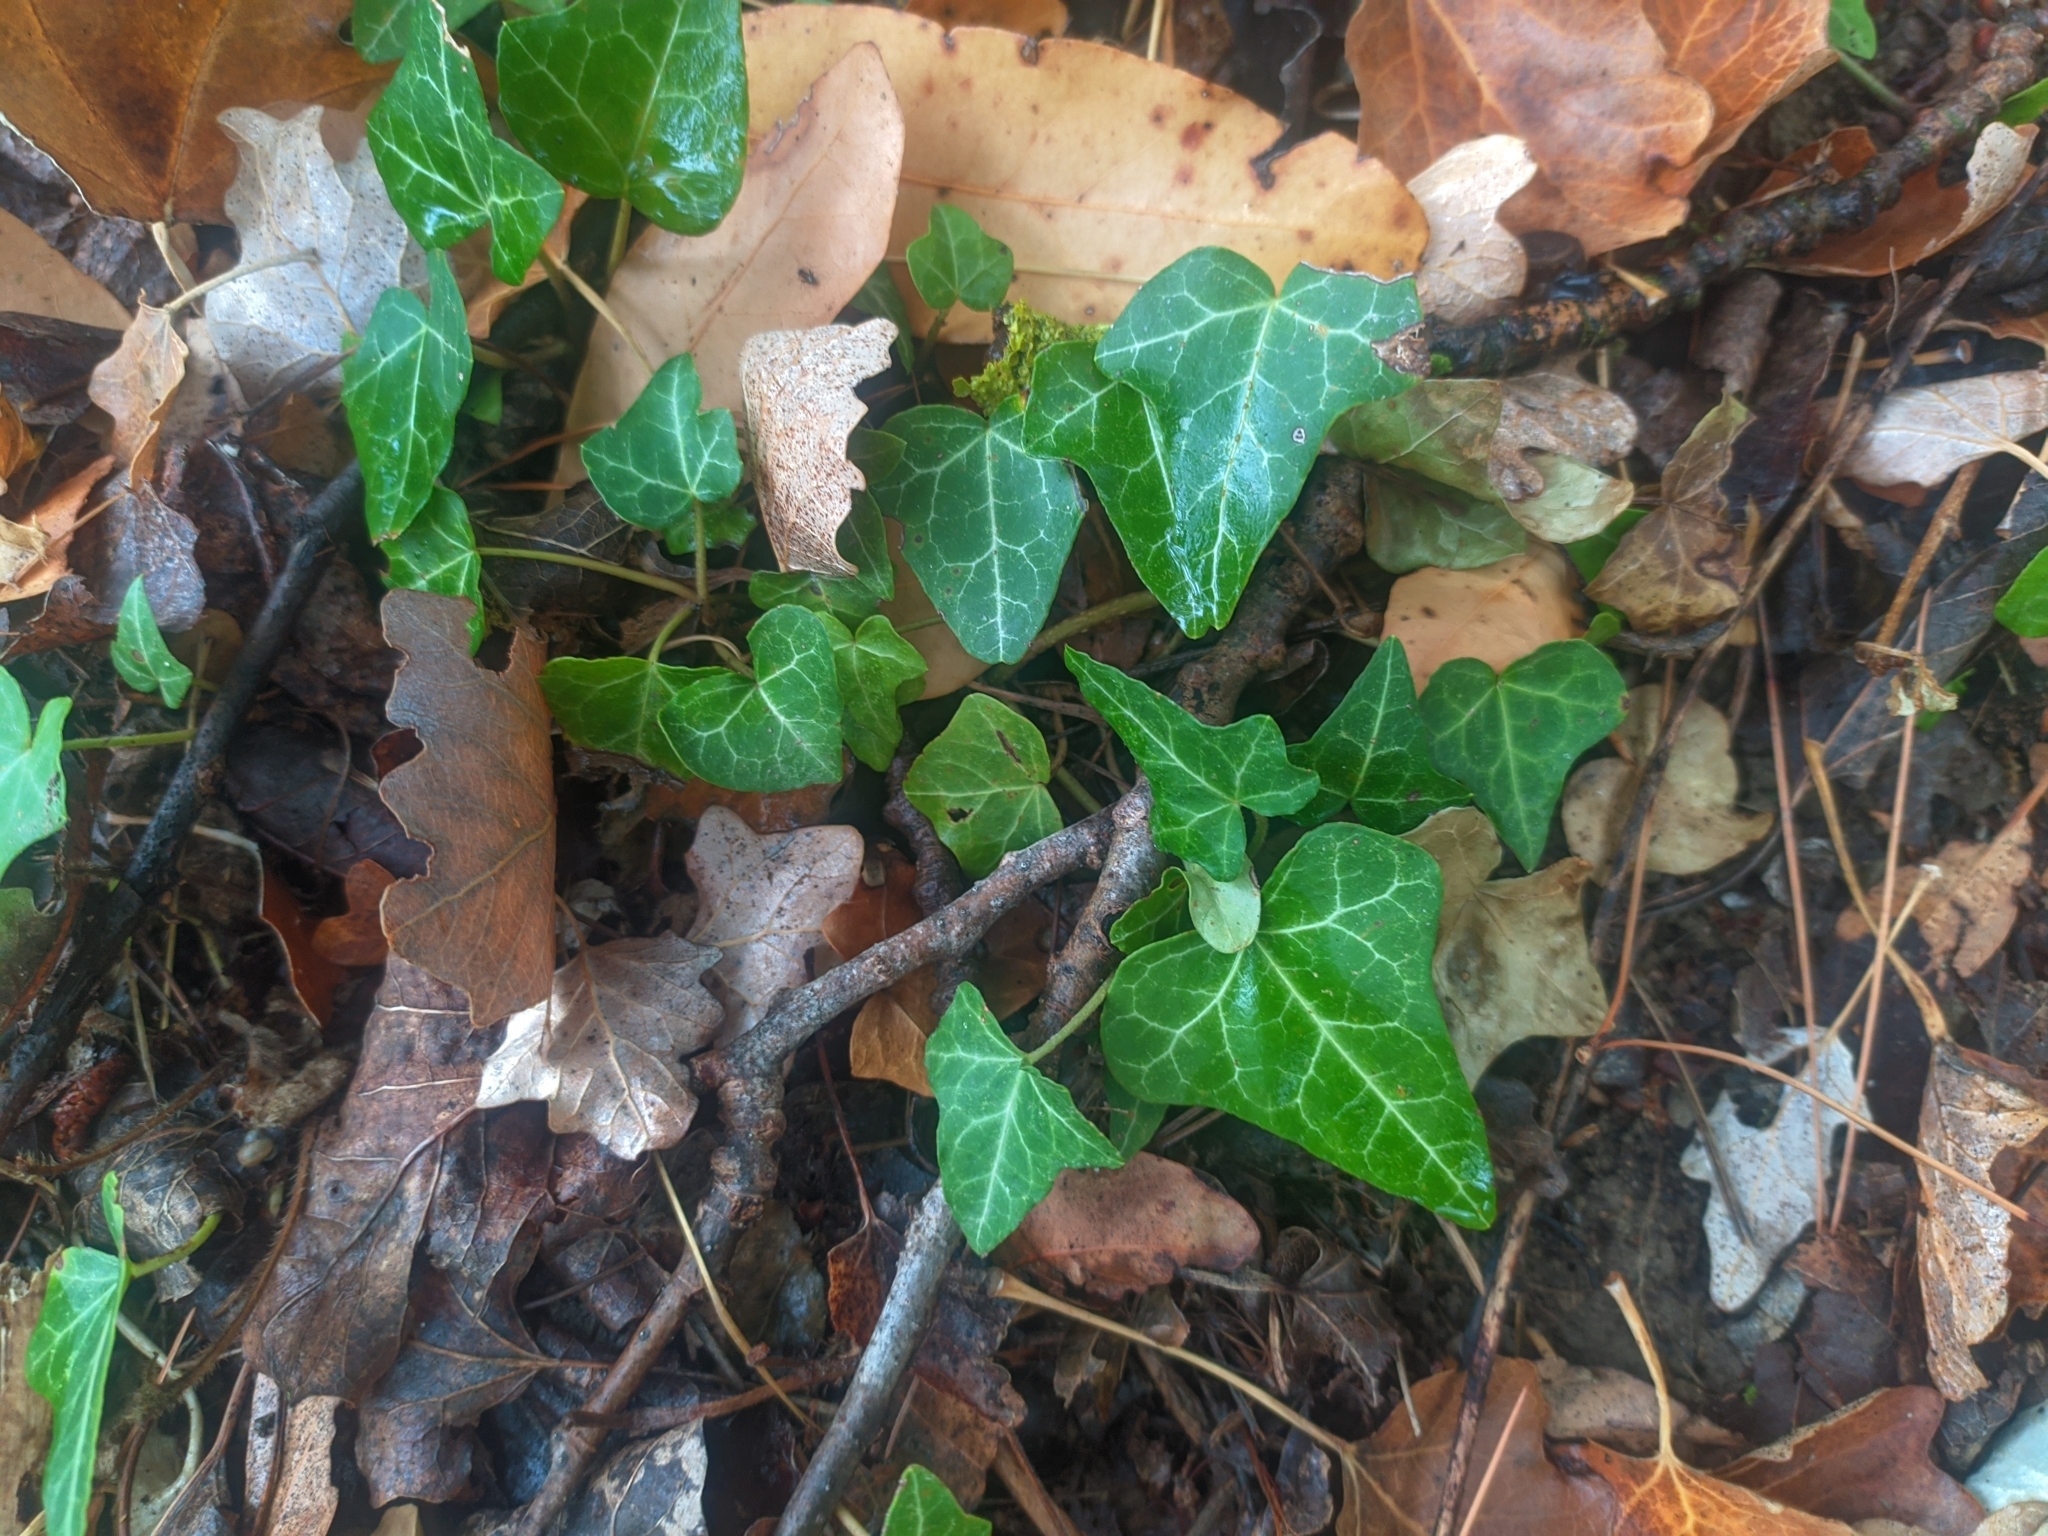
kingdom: Plantae
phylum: Tracheophyta
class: Magnoliopsida
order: Apiales
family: Araliaceae
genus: Hedera
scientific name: Hedera helix
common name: Ivy
